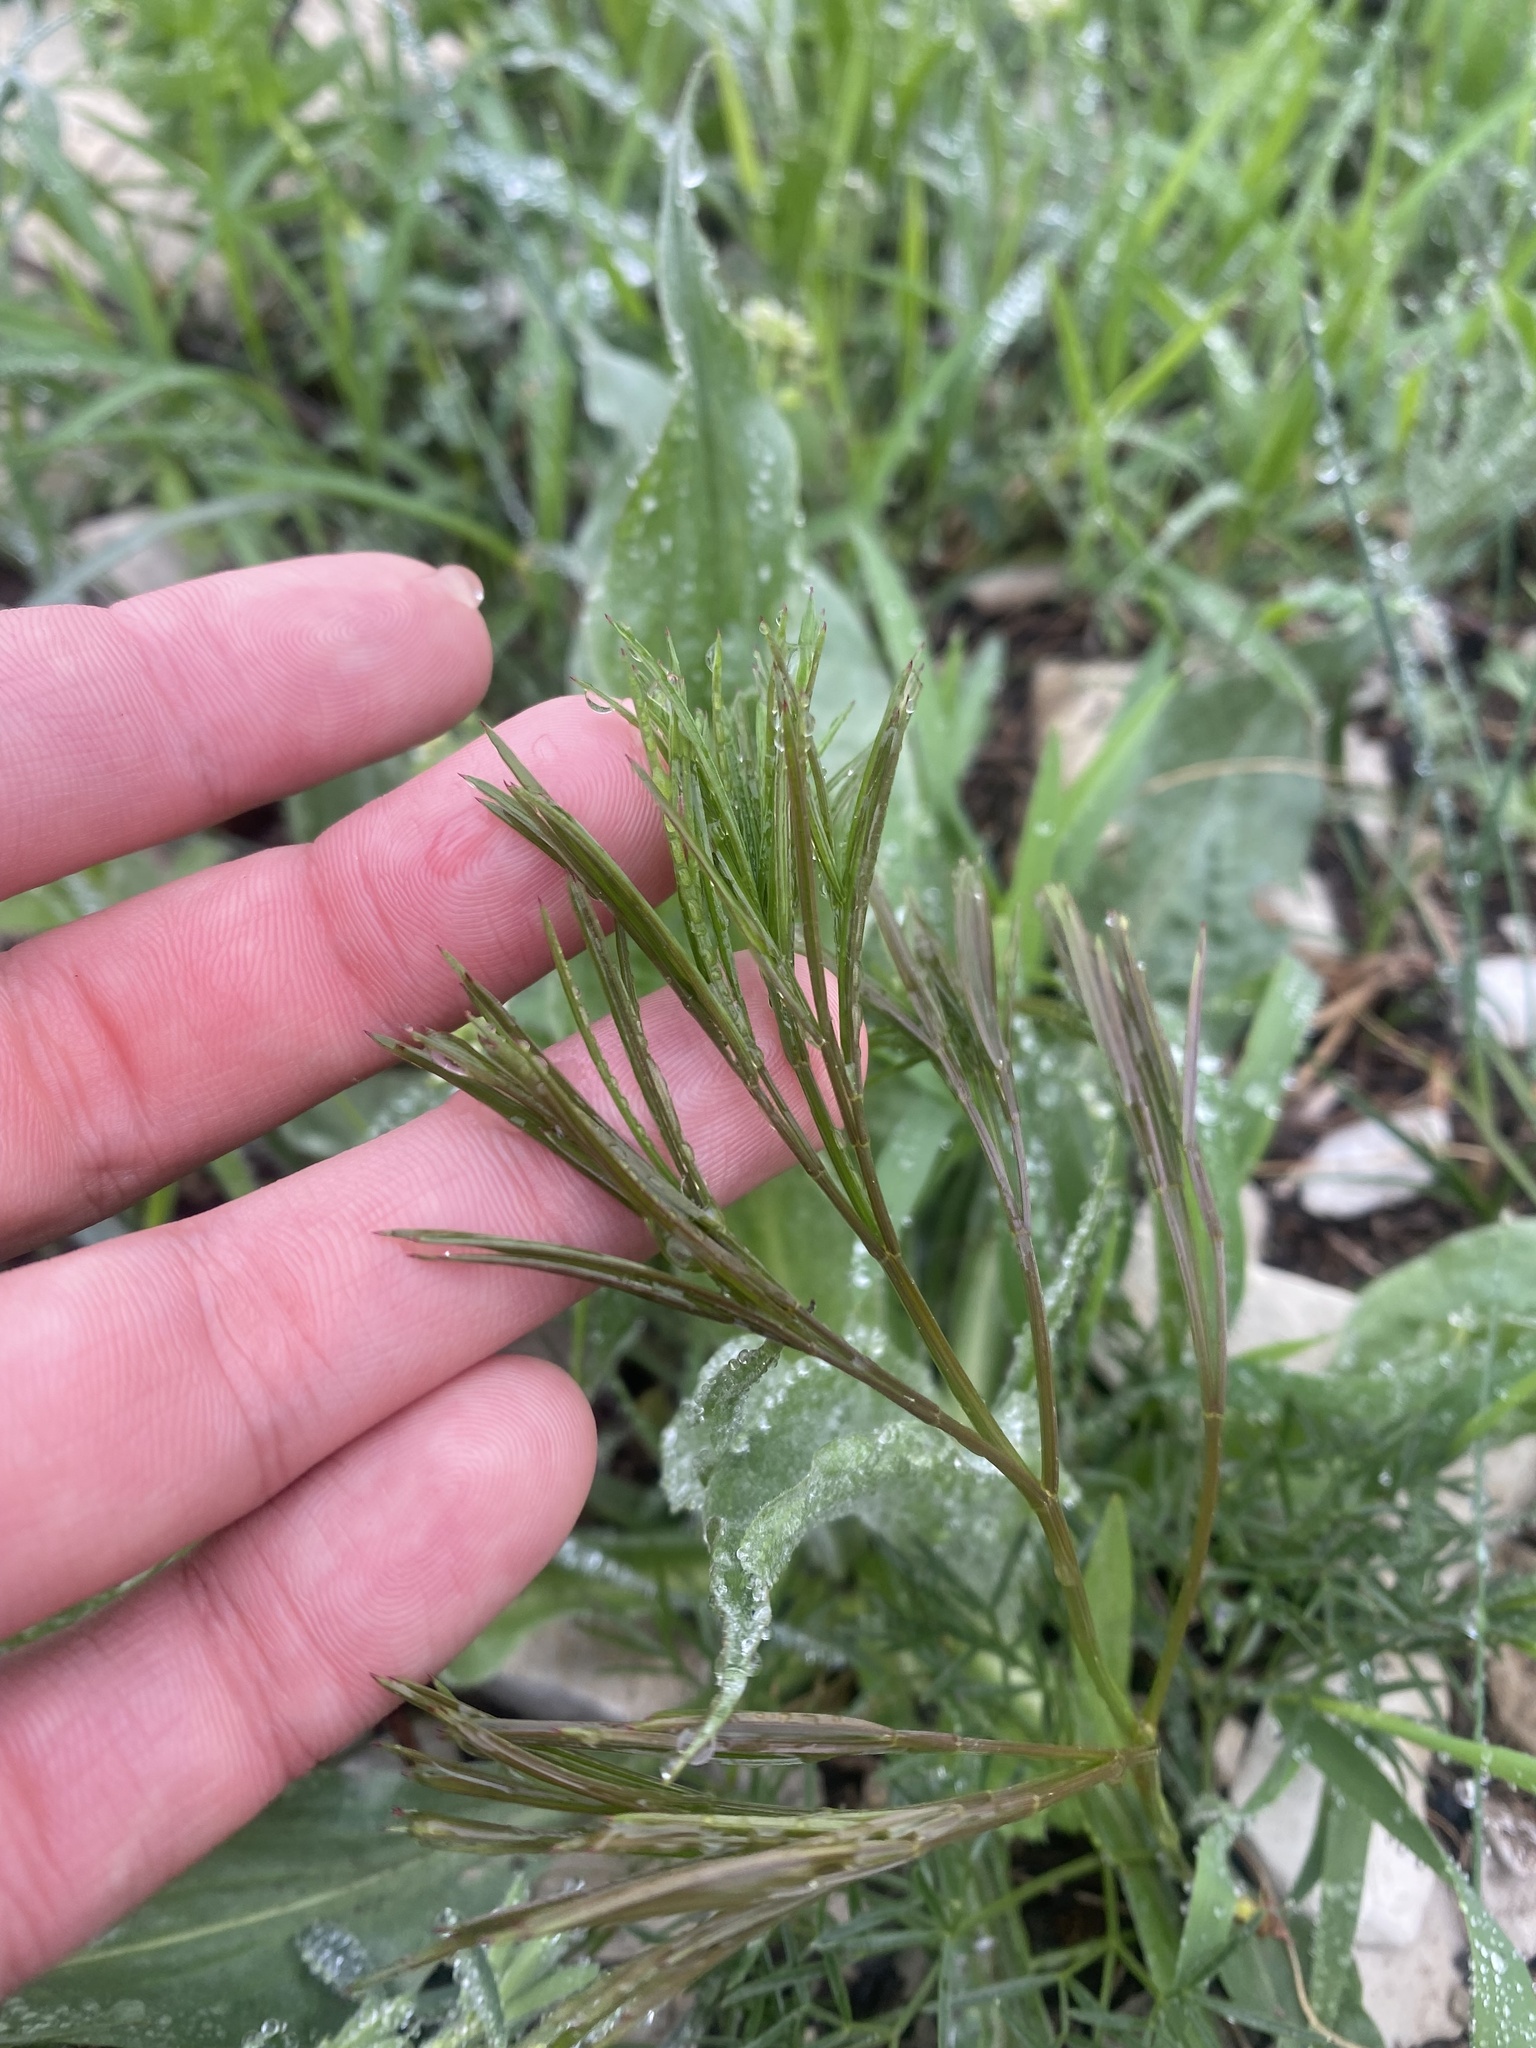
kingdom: Plantae
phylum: Tracheophyta
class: Magnoliopsida
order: Apiales
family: Apiaceae
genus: Seseli
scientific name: Seseli campestre
